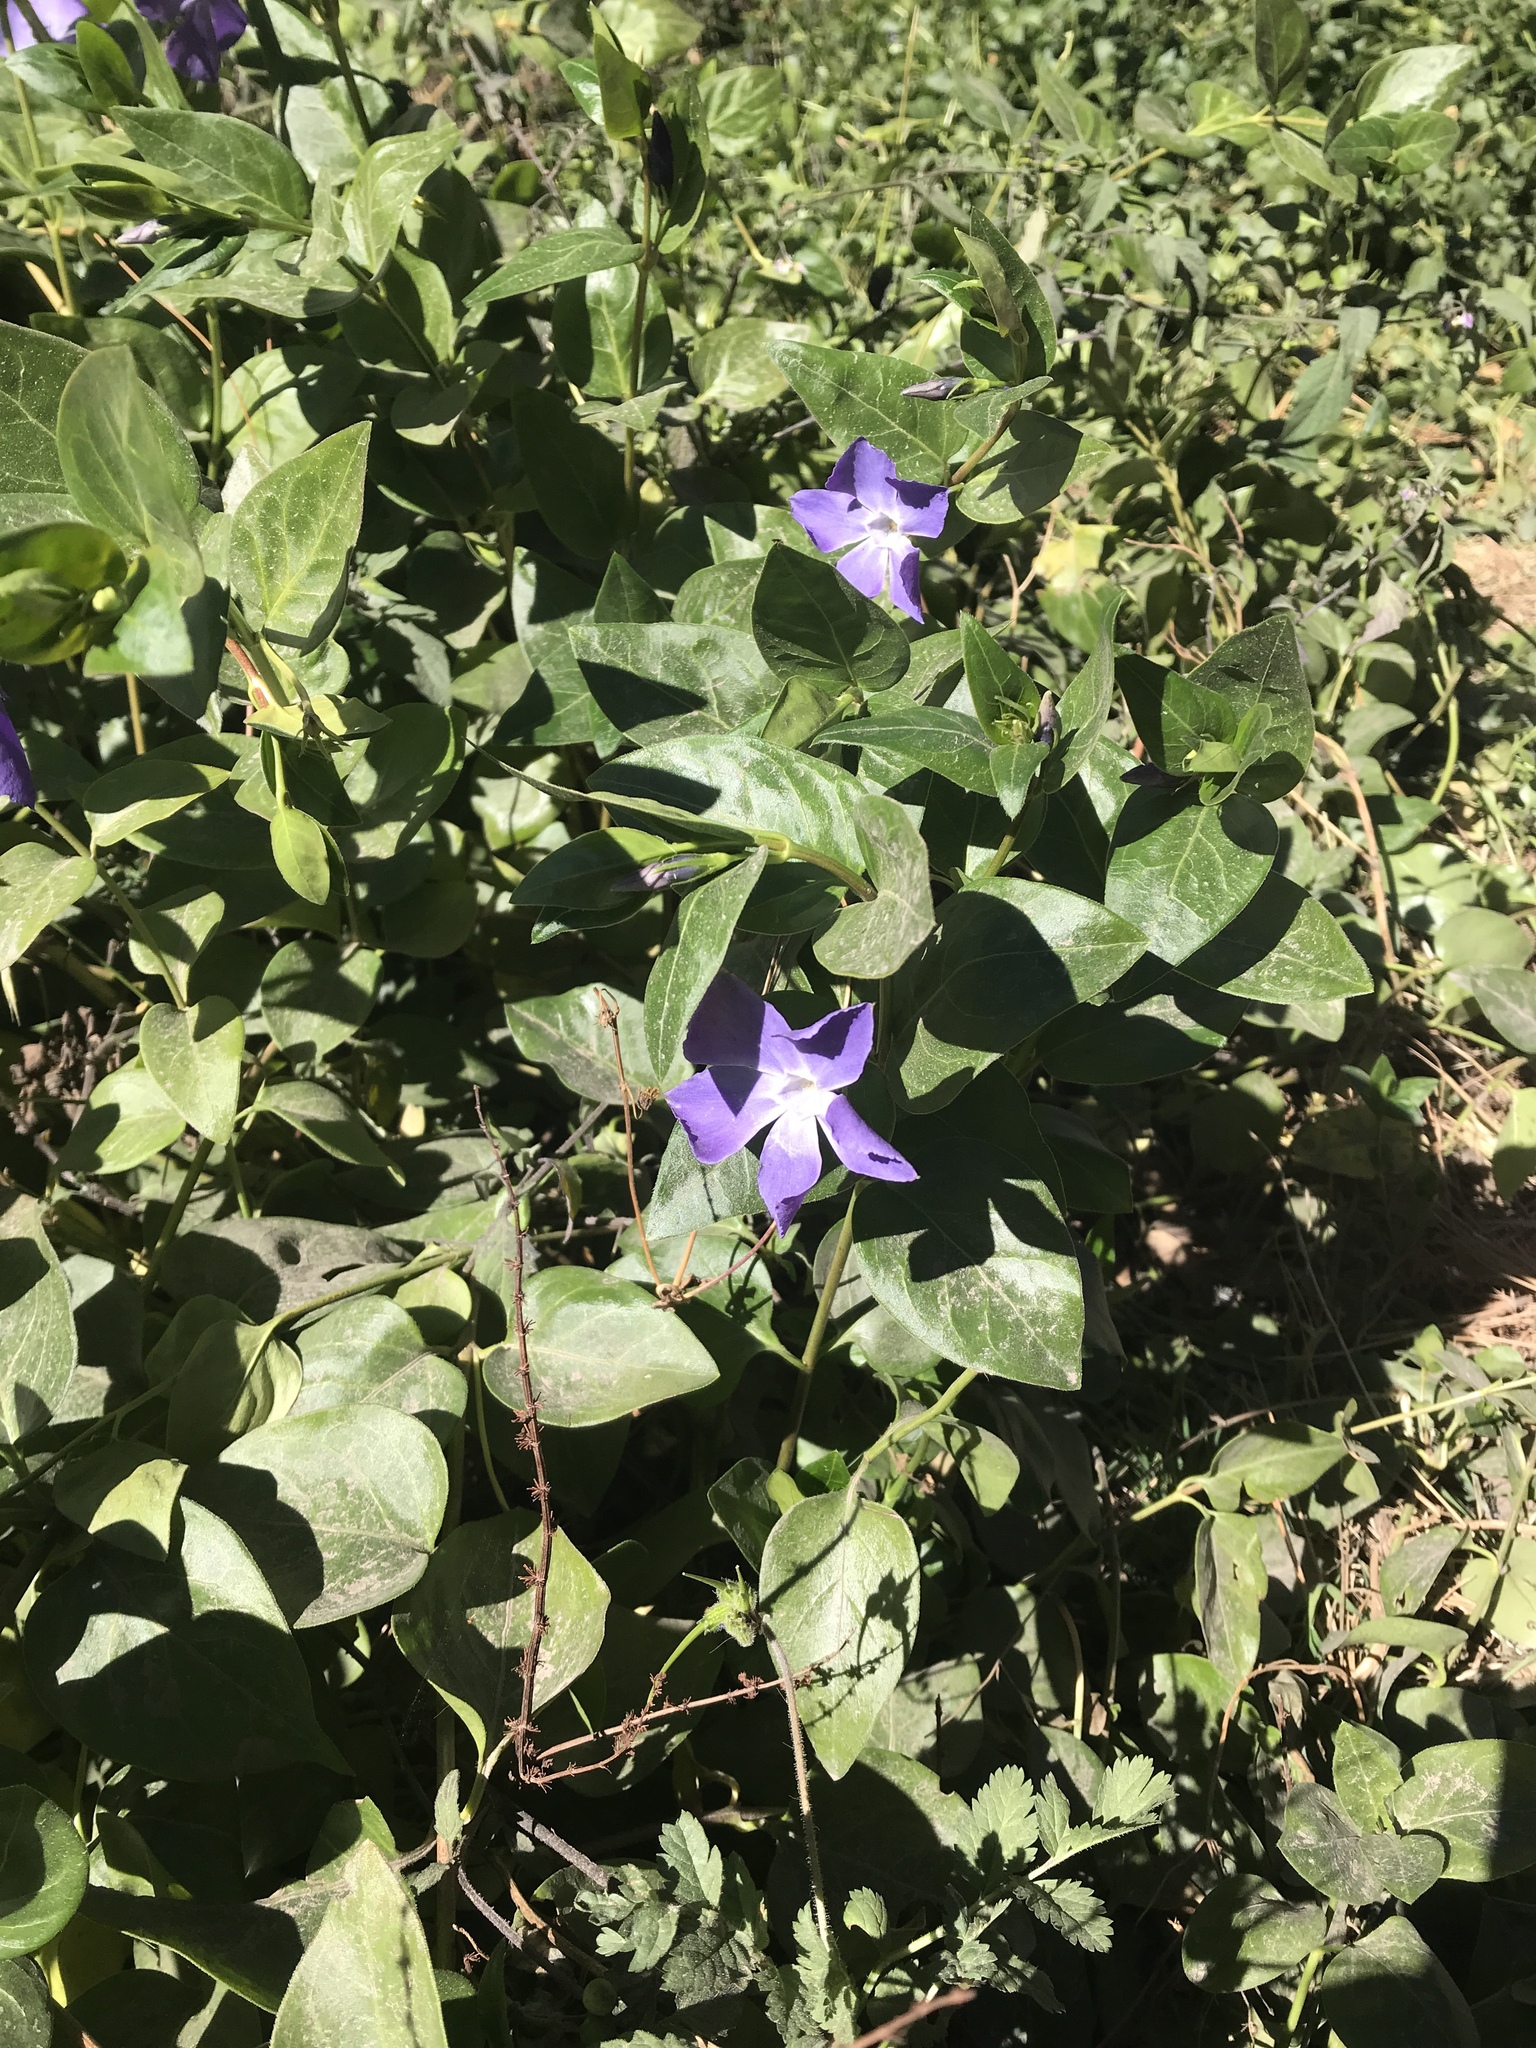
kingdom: Plantae
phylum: Tracheophyta
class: Magnoliopsida
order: Gentianales
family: Apocynaceae
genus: Vinca
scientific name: Vinca major
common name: Greater periwinkle
